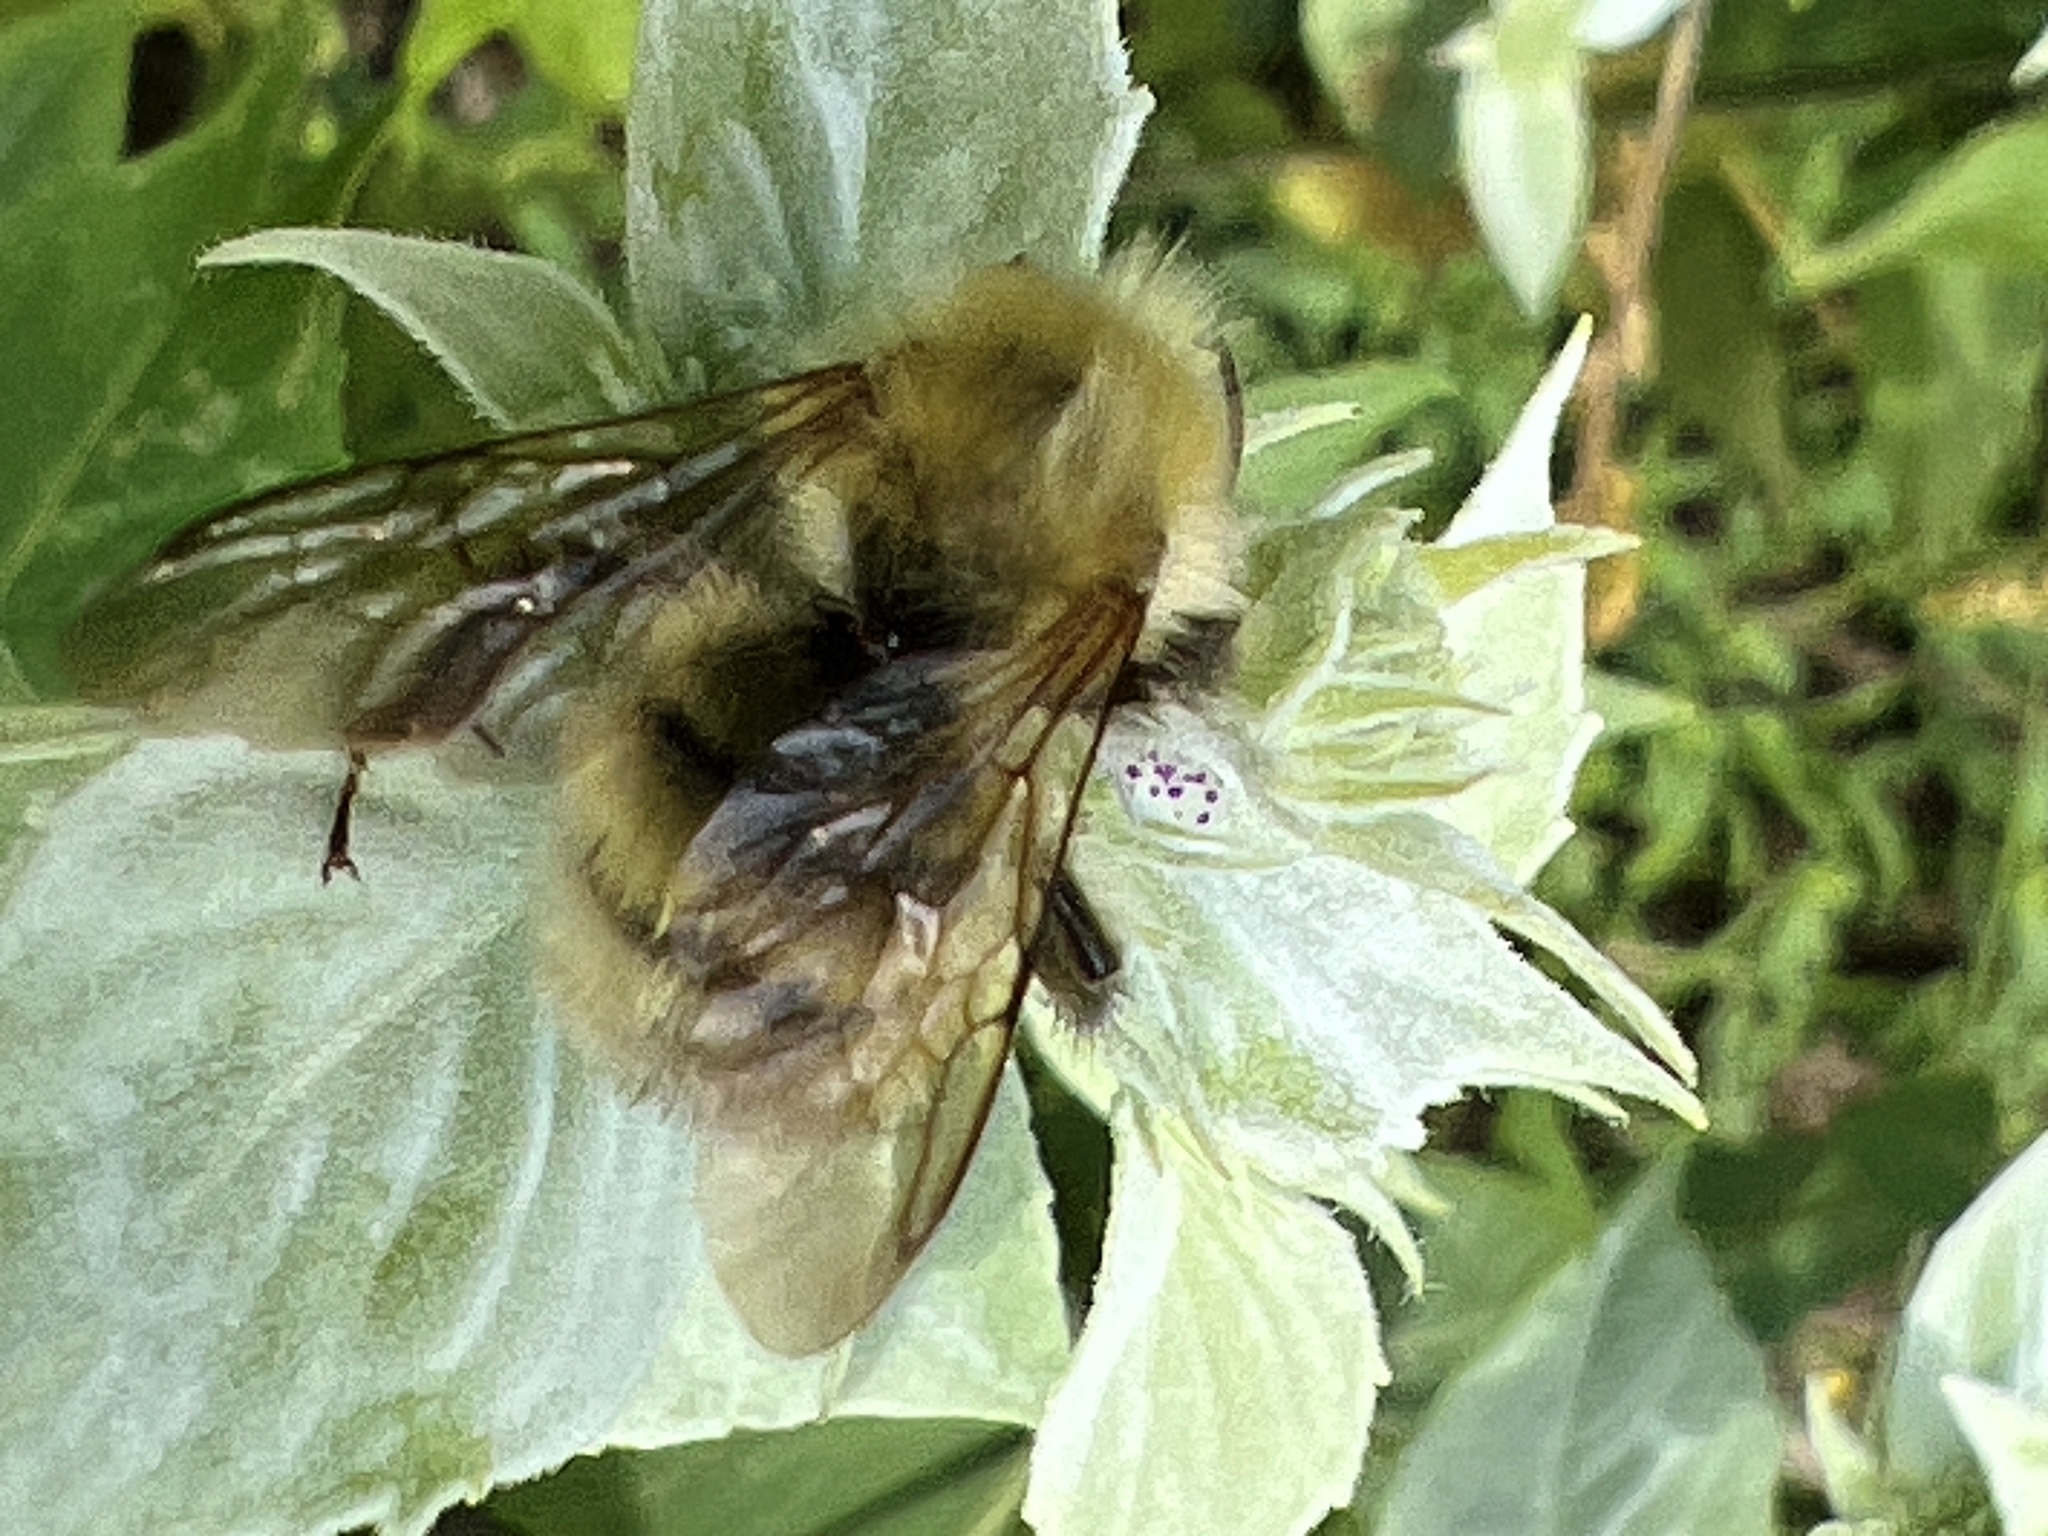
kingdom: Animalia
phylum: Arthropoda
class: Insecta
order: Hymenoptera
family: Apidae
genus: Bombus
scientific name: Bombus perplexus
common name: Confusing bumble bee
